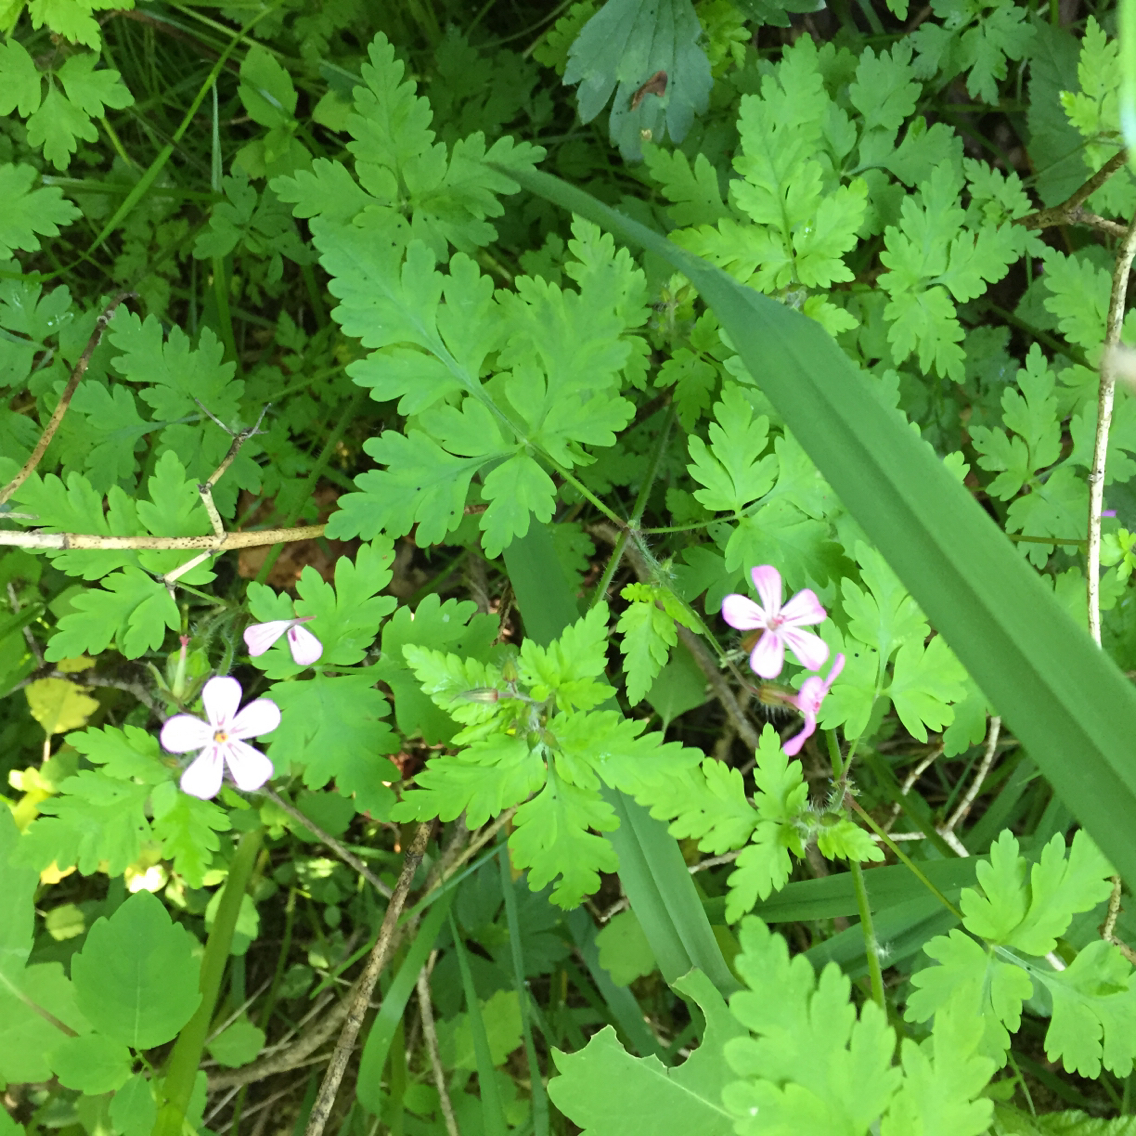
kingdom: Plantae
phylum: Tracheophyta
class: Magnoliopsida
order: Geraniales
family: Geraniaceae
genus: Geranium
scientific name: Geranium robertianum
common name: Herb-robert
